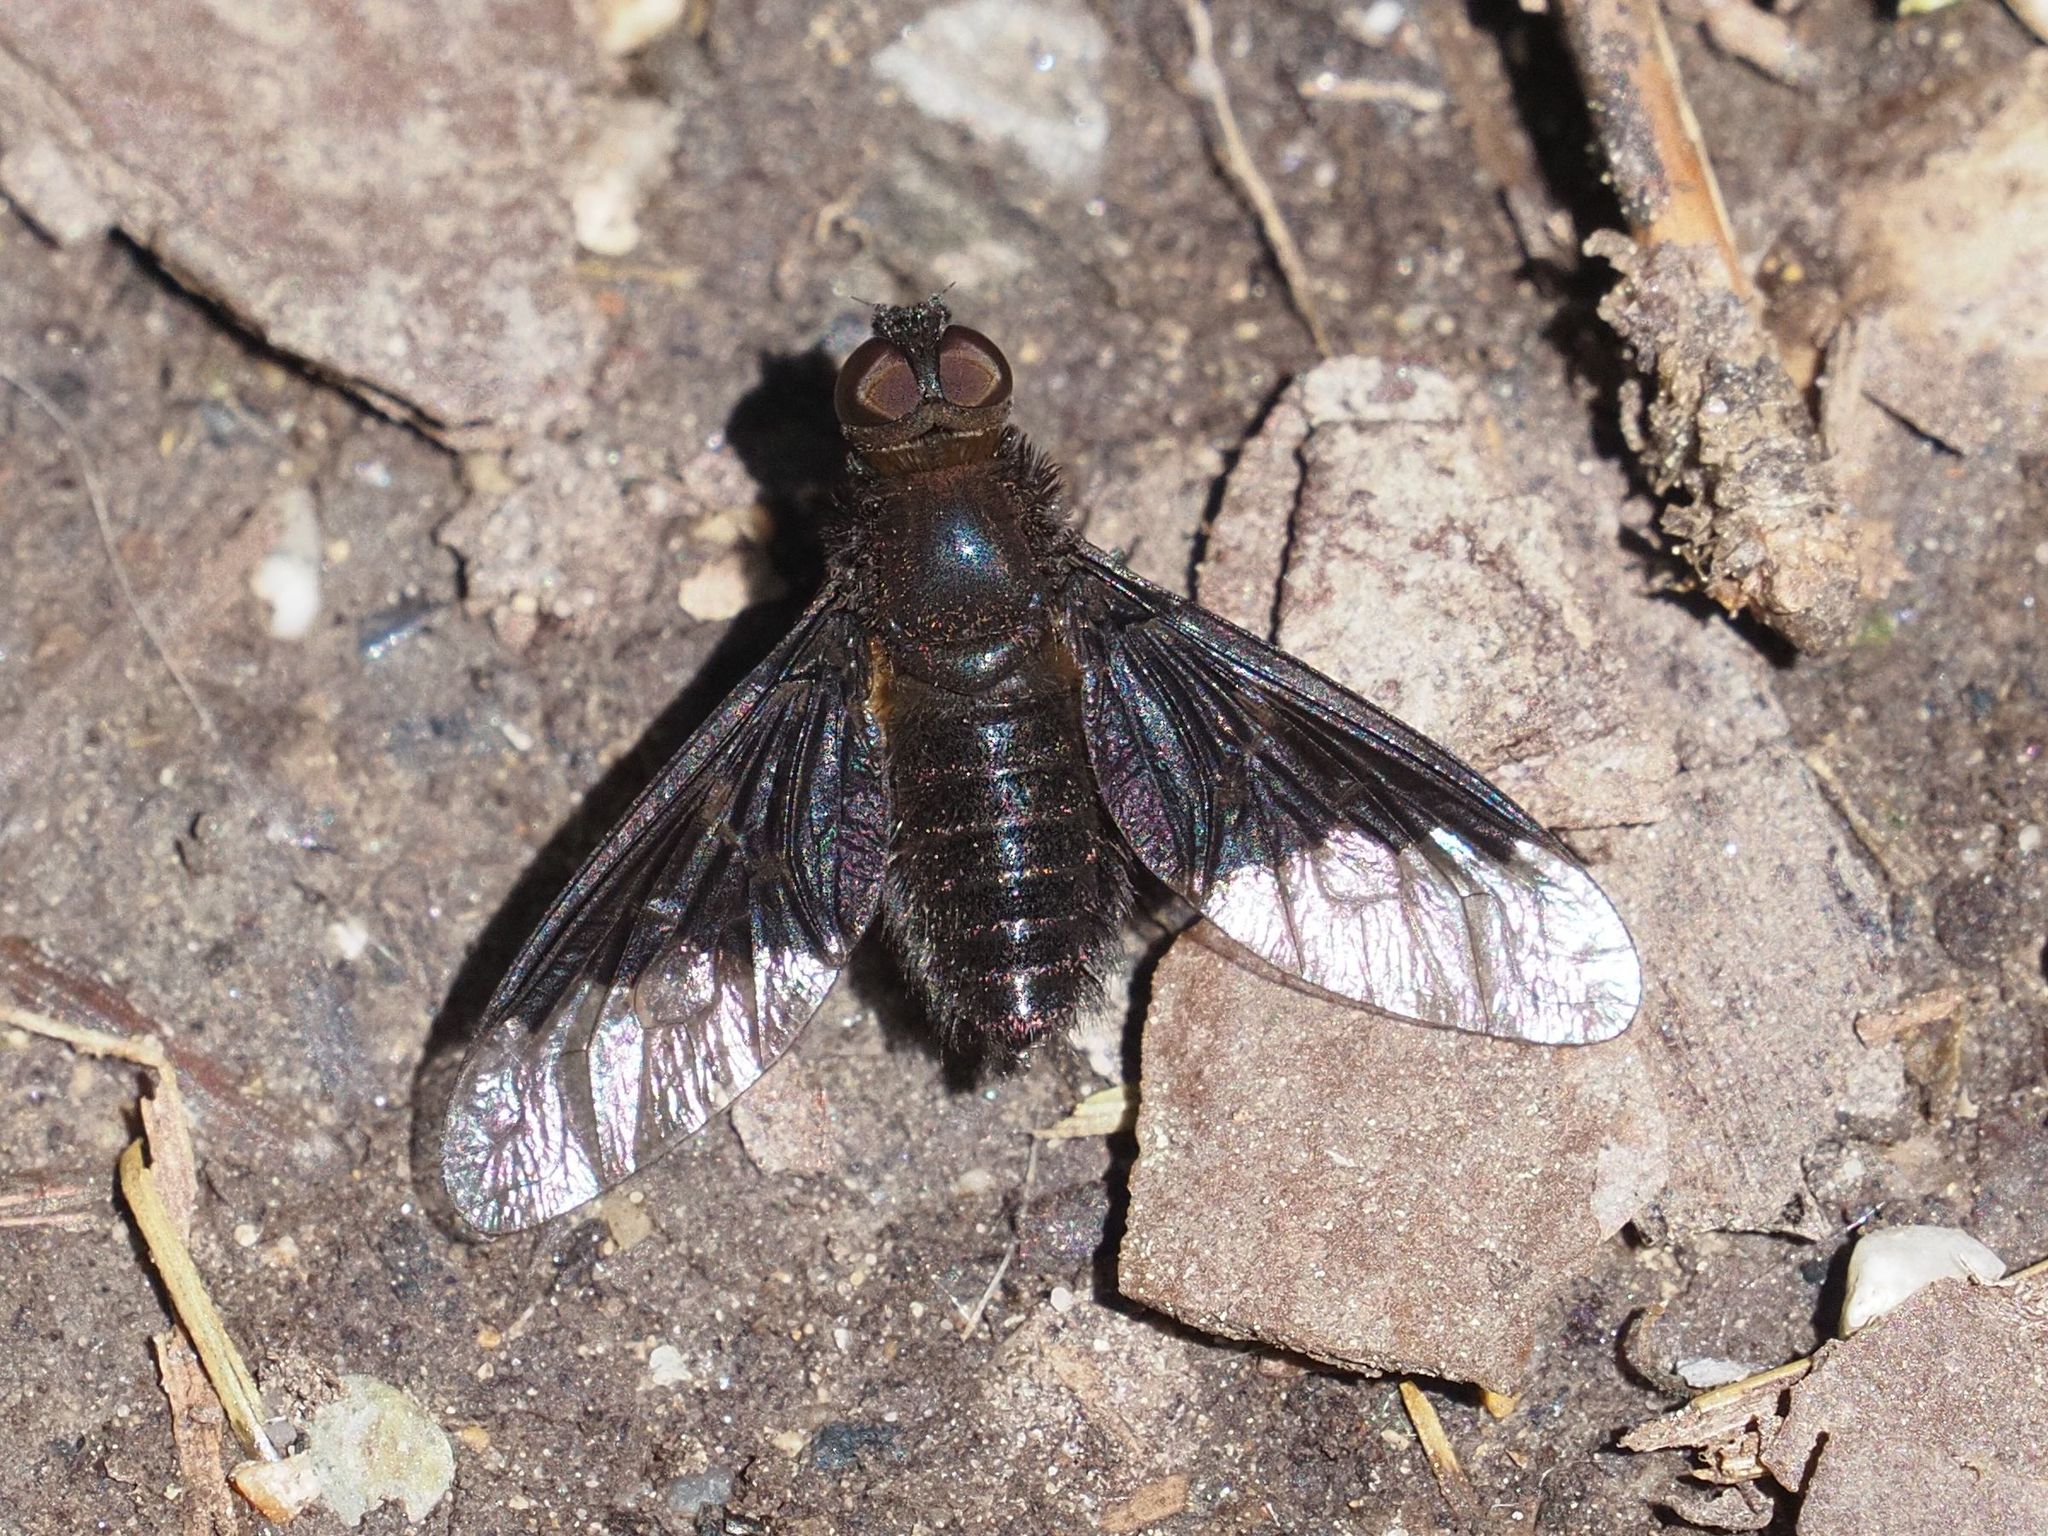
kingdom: Animalia
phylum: Arthropoda
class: Insecta
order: Diptera
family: Bombyliidae
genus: Hemipenthes
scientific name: Hemipenthes morio
